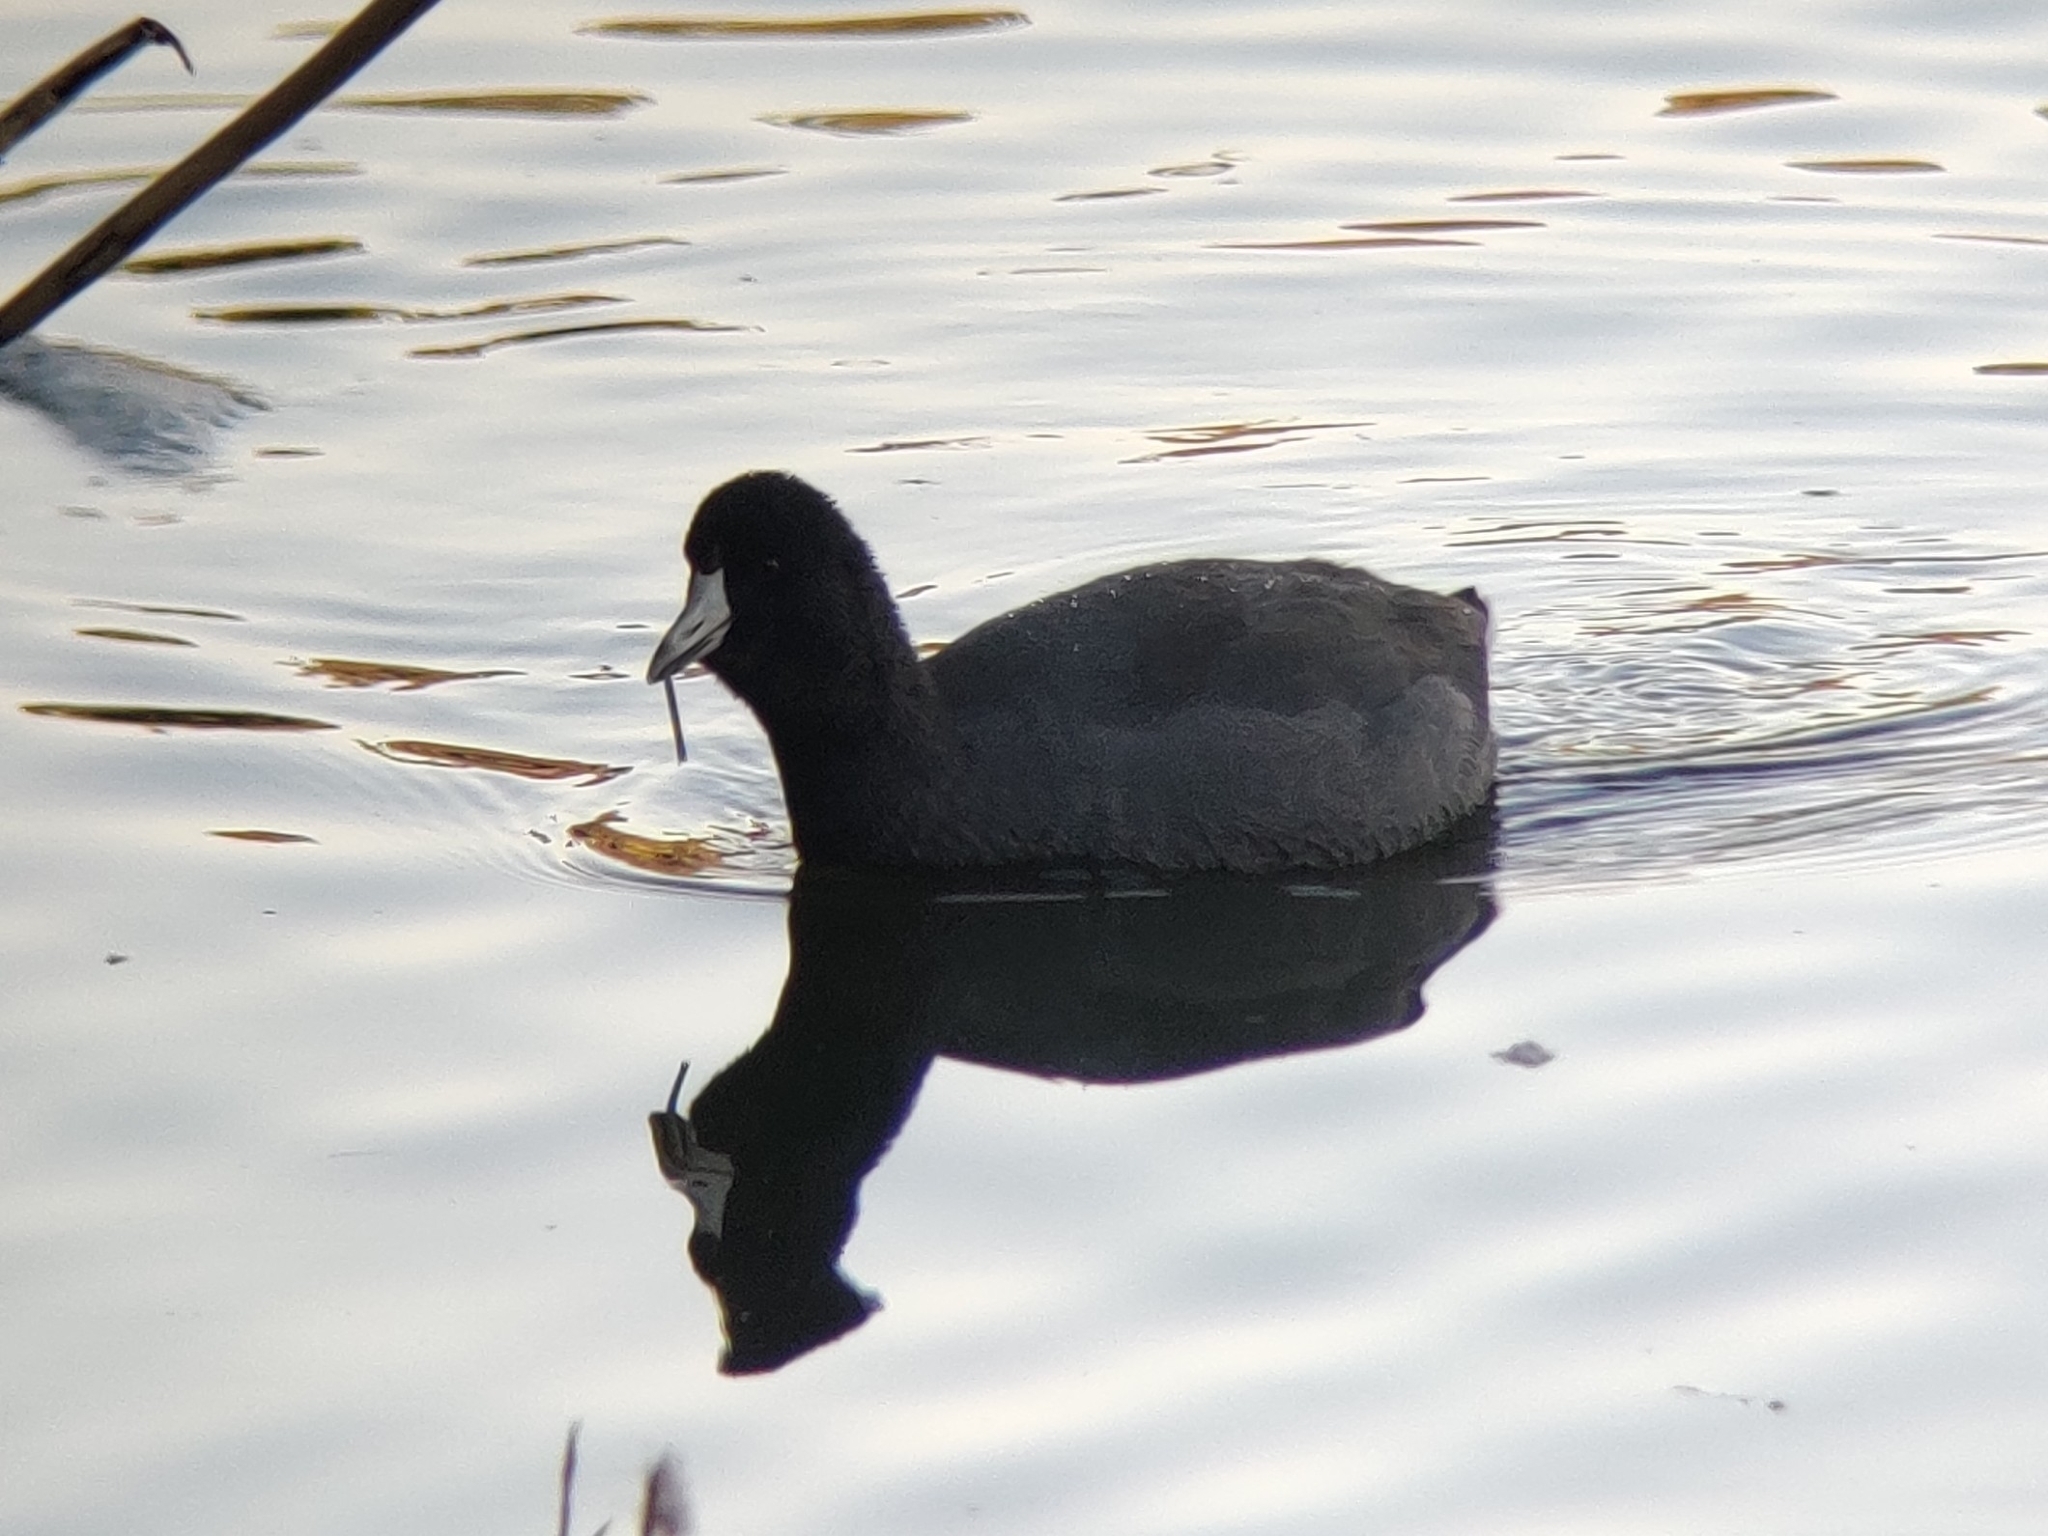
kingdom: Animalia
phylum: Chordata
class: Aves
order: Gruiformes
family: Rallidae
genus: Fulica
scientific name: Fulica americana
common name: American coot
